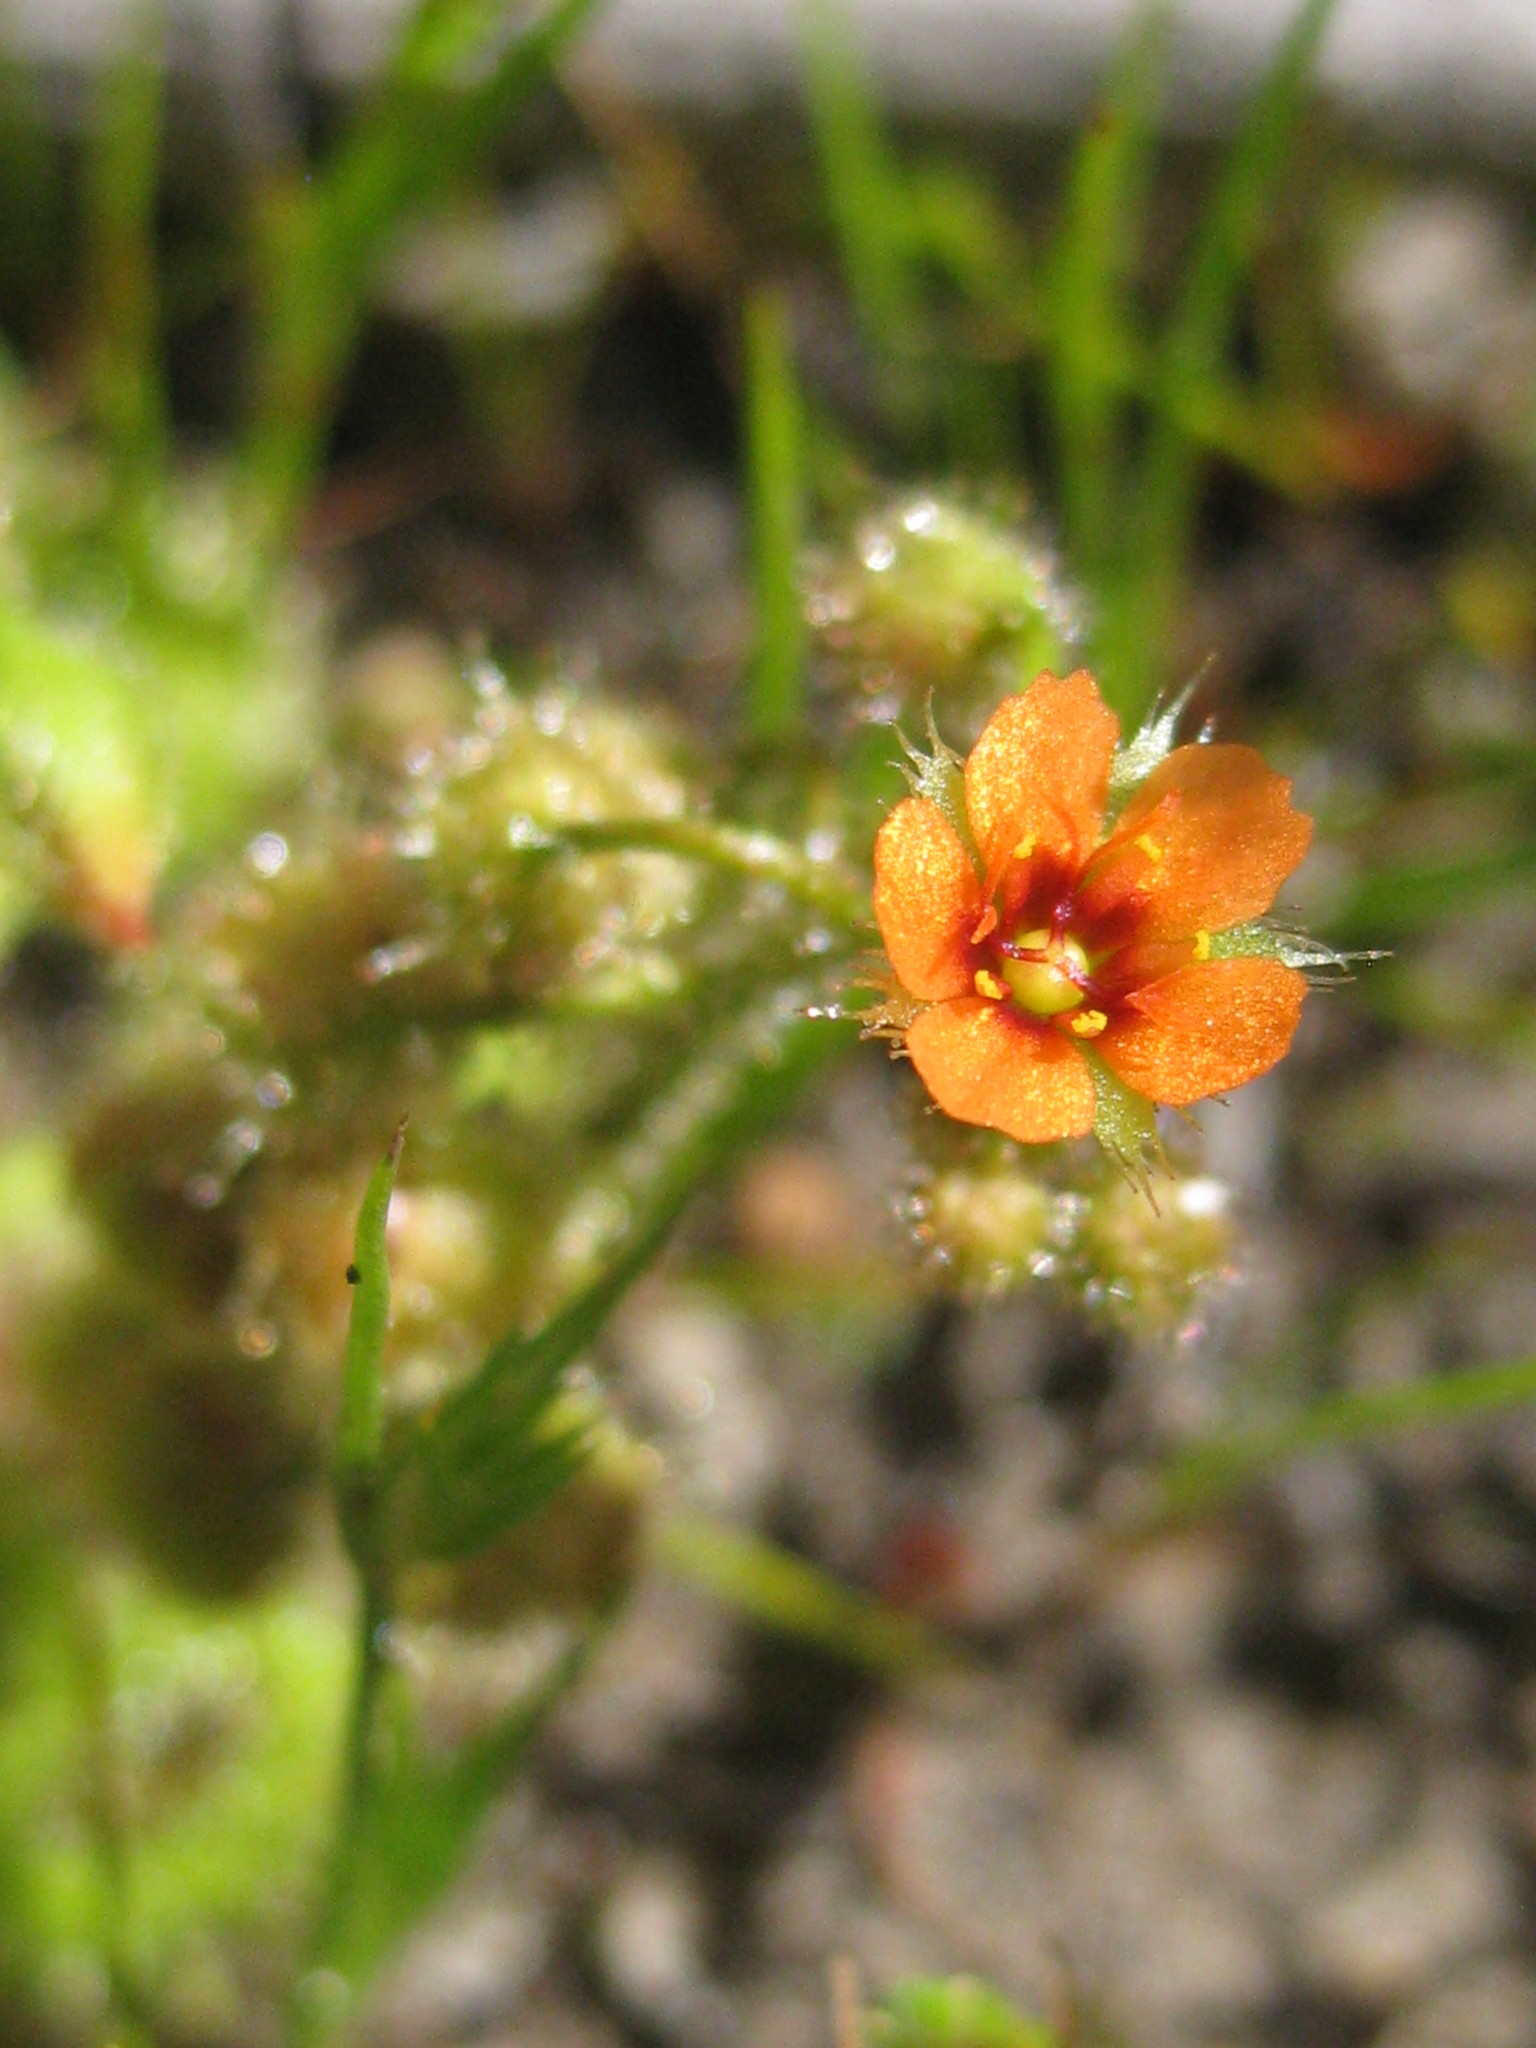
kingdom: Plantae
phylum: Tracheophyta
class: Magnoliopsida
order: Caryophyllales
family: Droseraceae
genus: Drosera
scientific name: Drosera glanduligera
